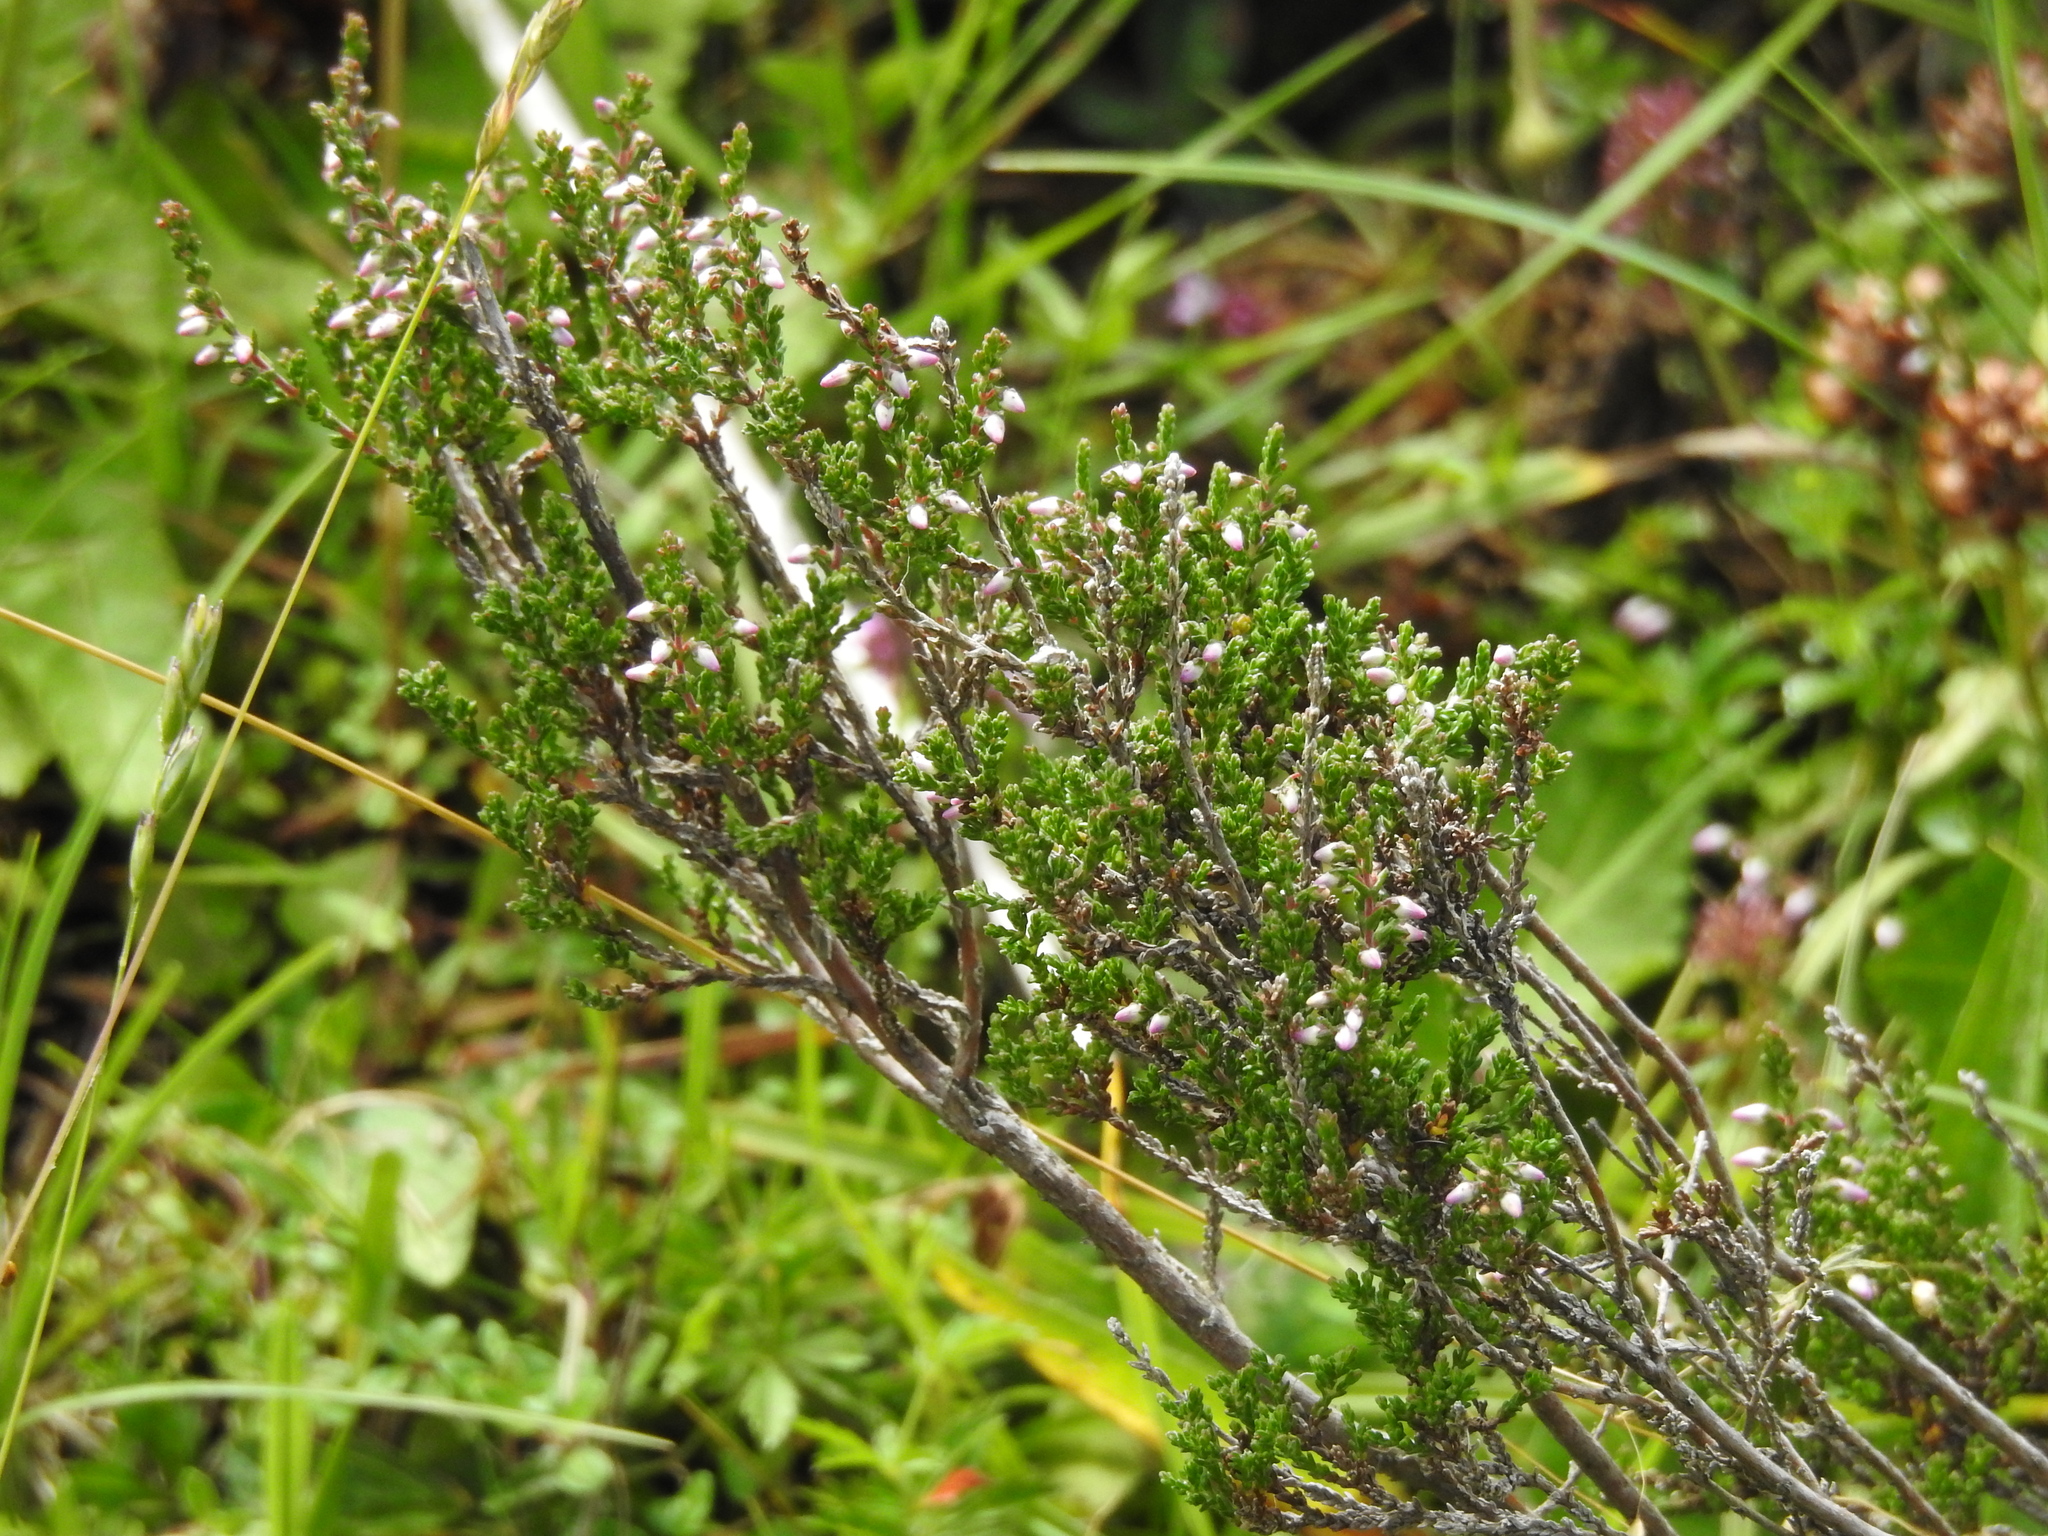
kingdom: Plantae
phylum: Tracheophyta
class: Magnoliopsida
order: Ericales
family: Ericaceae
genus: Calluna
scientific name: Calluna vulgaris
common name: Heather
